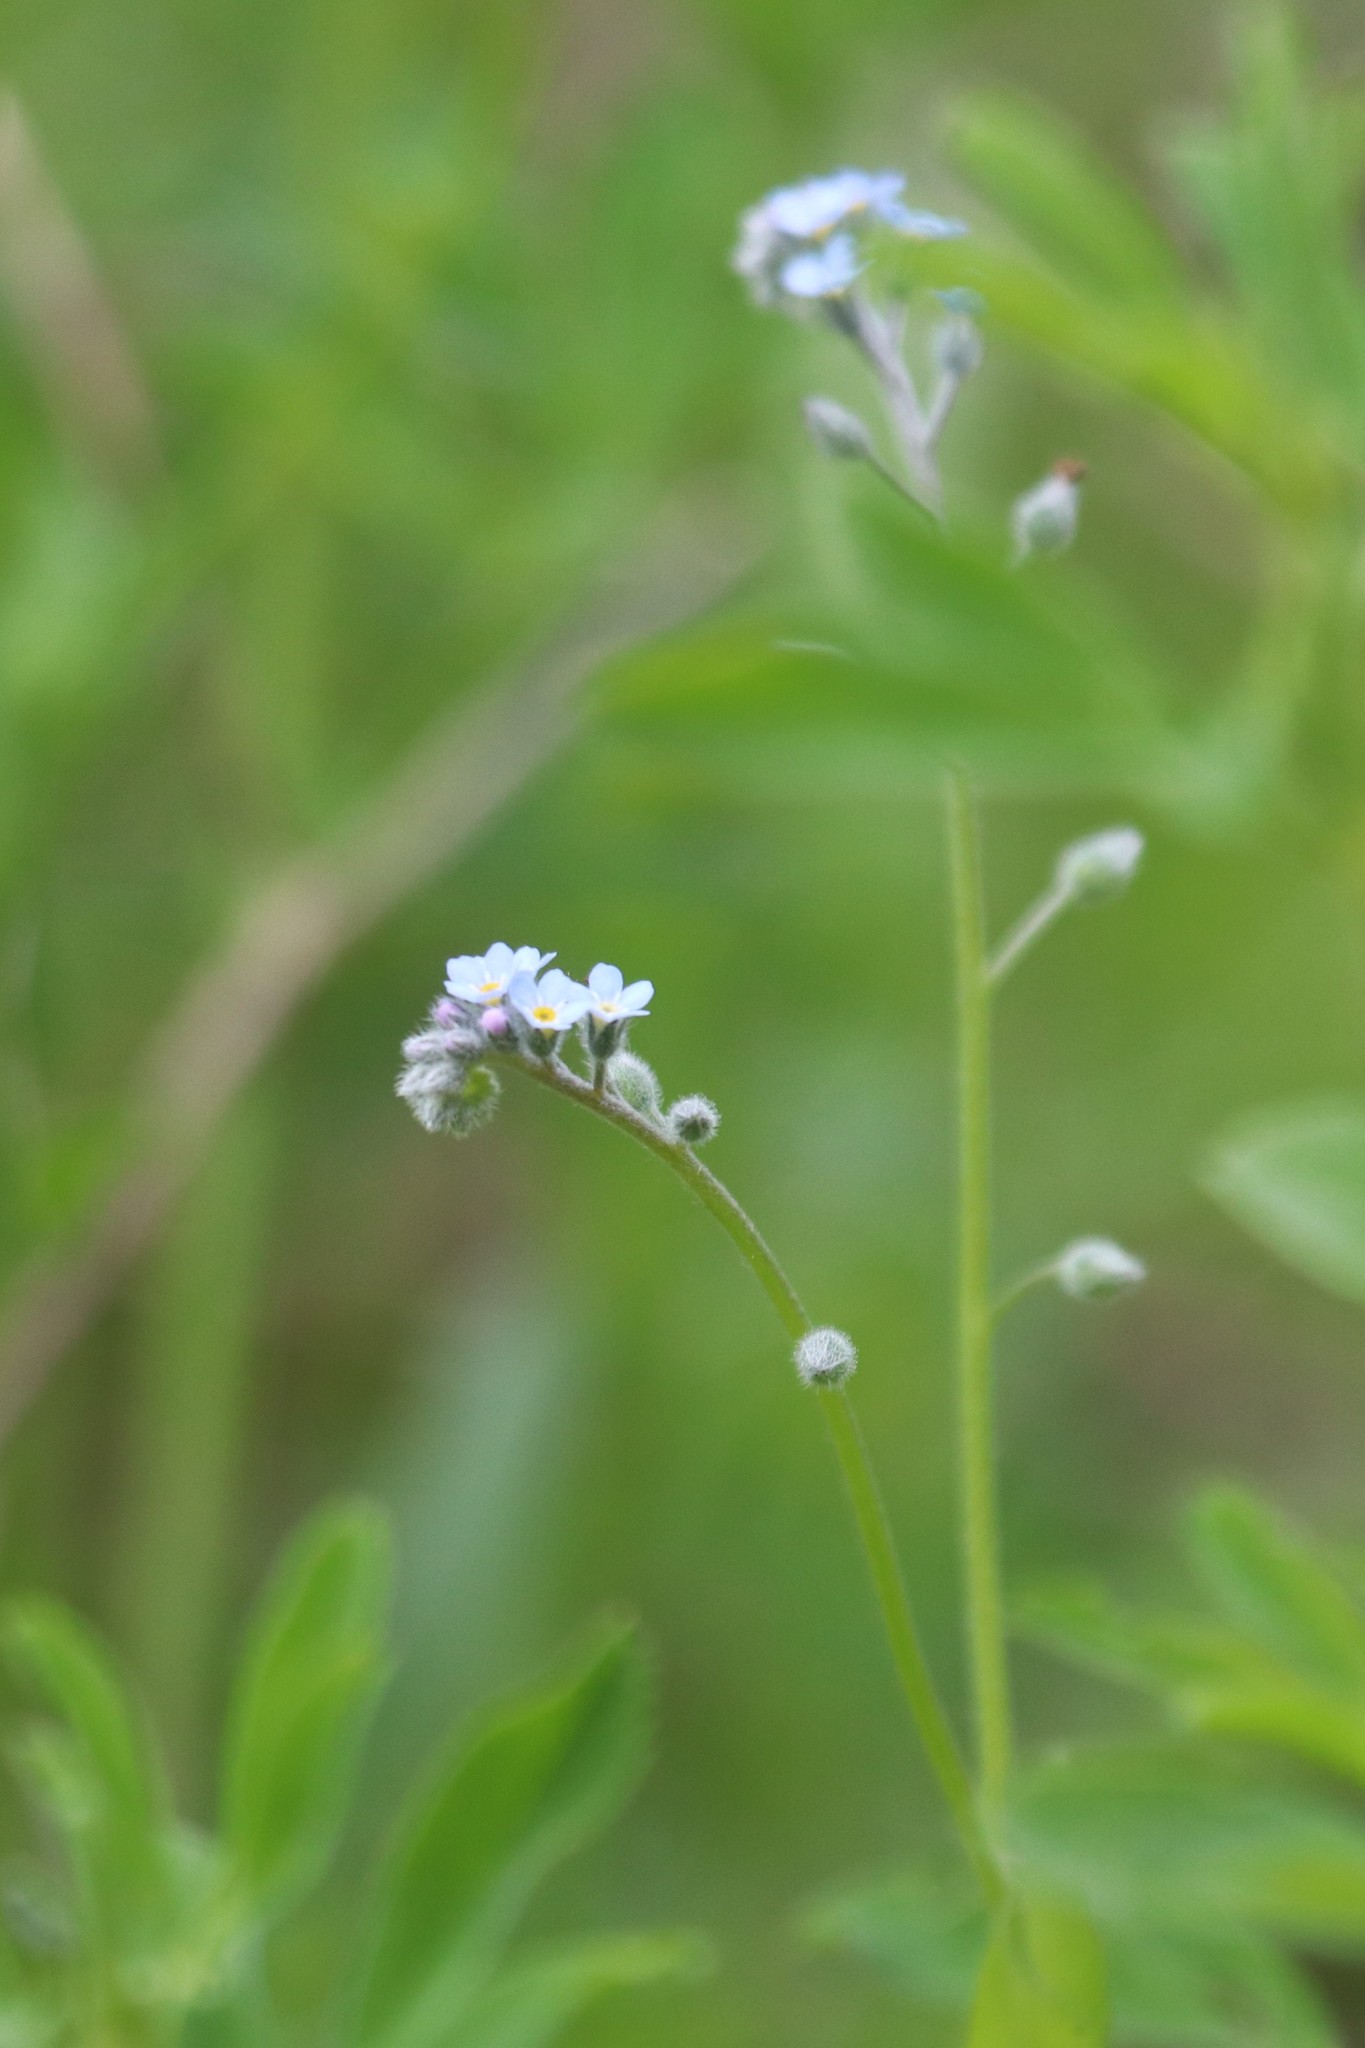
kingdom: Plantae
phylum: Tracheophyta
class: Magnoliopsida
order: Boraginales
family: Boraginaceae
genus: Myosotis
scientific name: Myosotis arvensis
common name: Field forget-me-not
